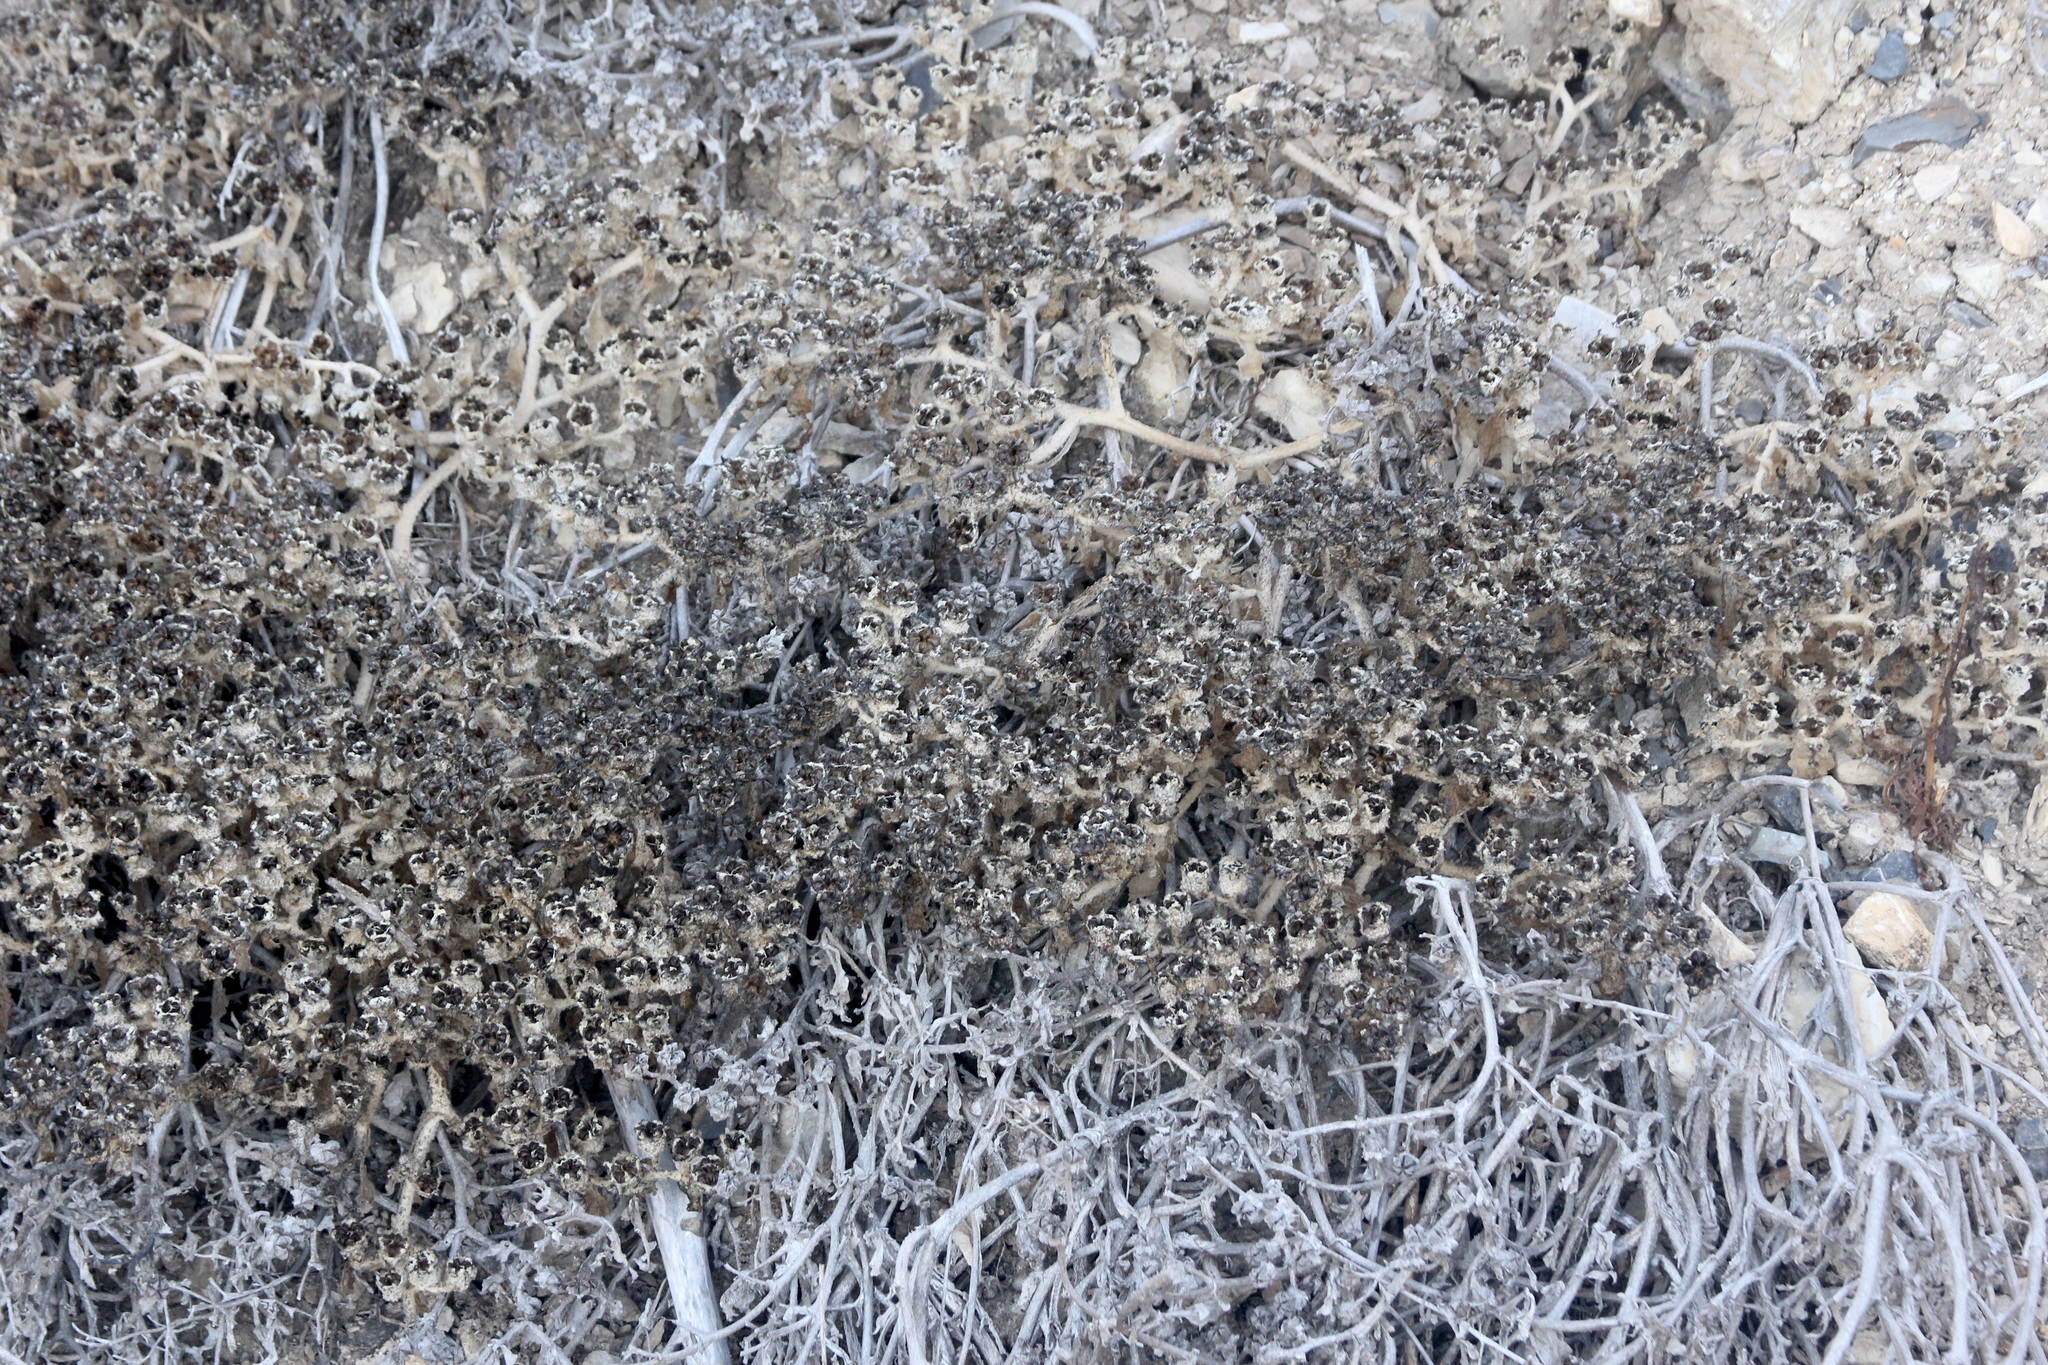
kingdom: Plantae
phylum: Tracheophyta
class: Magnoliopsida
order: Caryophyllales
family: Aizoaceae
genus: Mesembryanthemum
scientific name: Mesembryanthemum crystallinum
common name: Common iceplant
